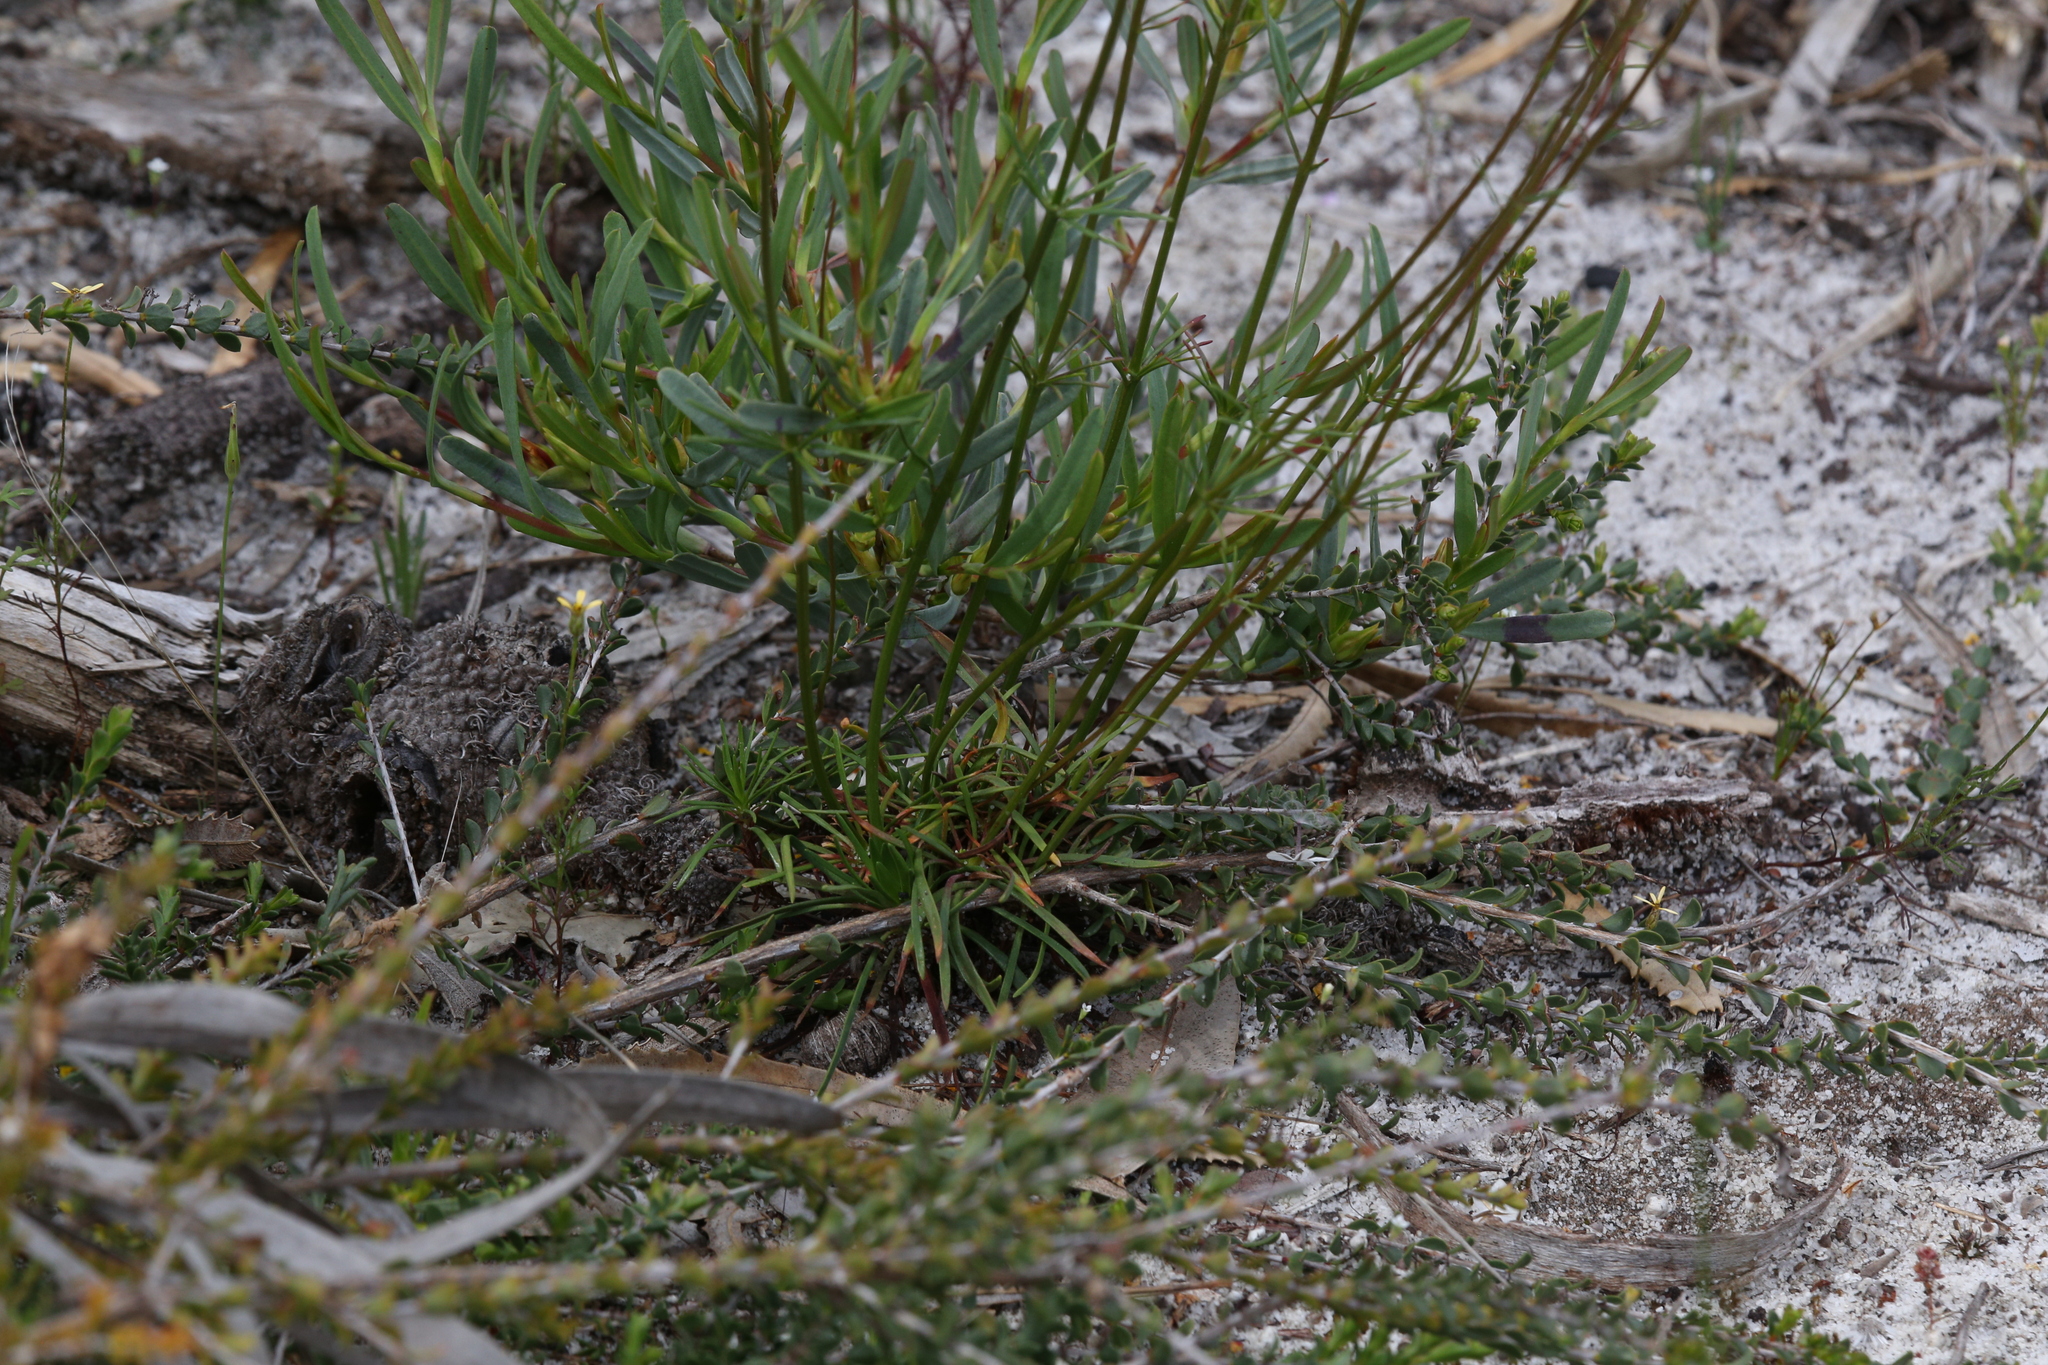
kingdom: Plantae
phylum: Tracheophyta
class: Magnoliopsida
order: Asterales
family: Stylidiaceae
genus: Stylidium
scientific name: Stylidium diuroides
